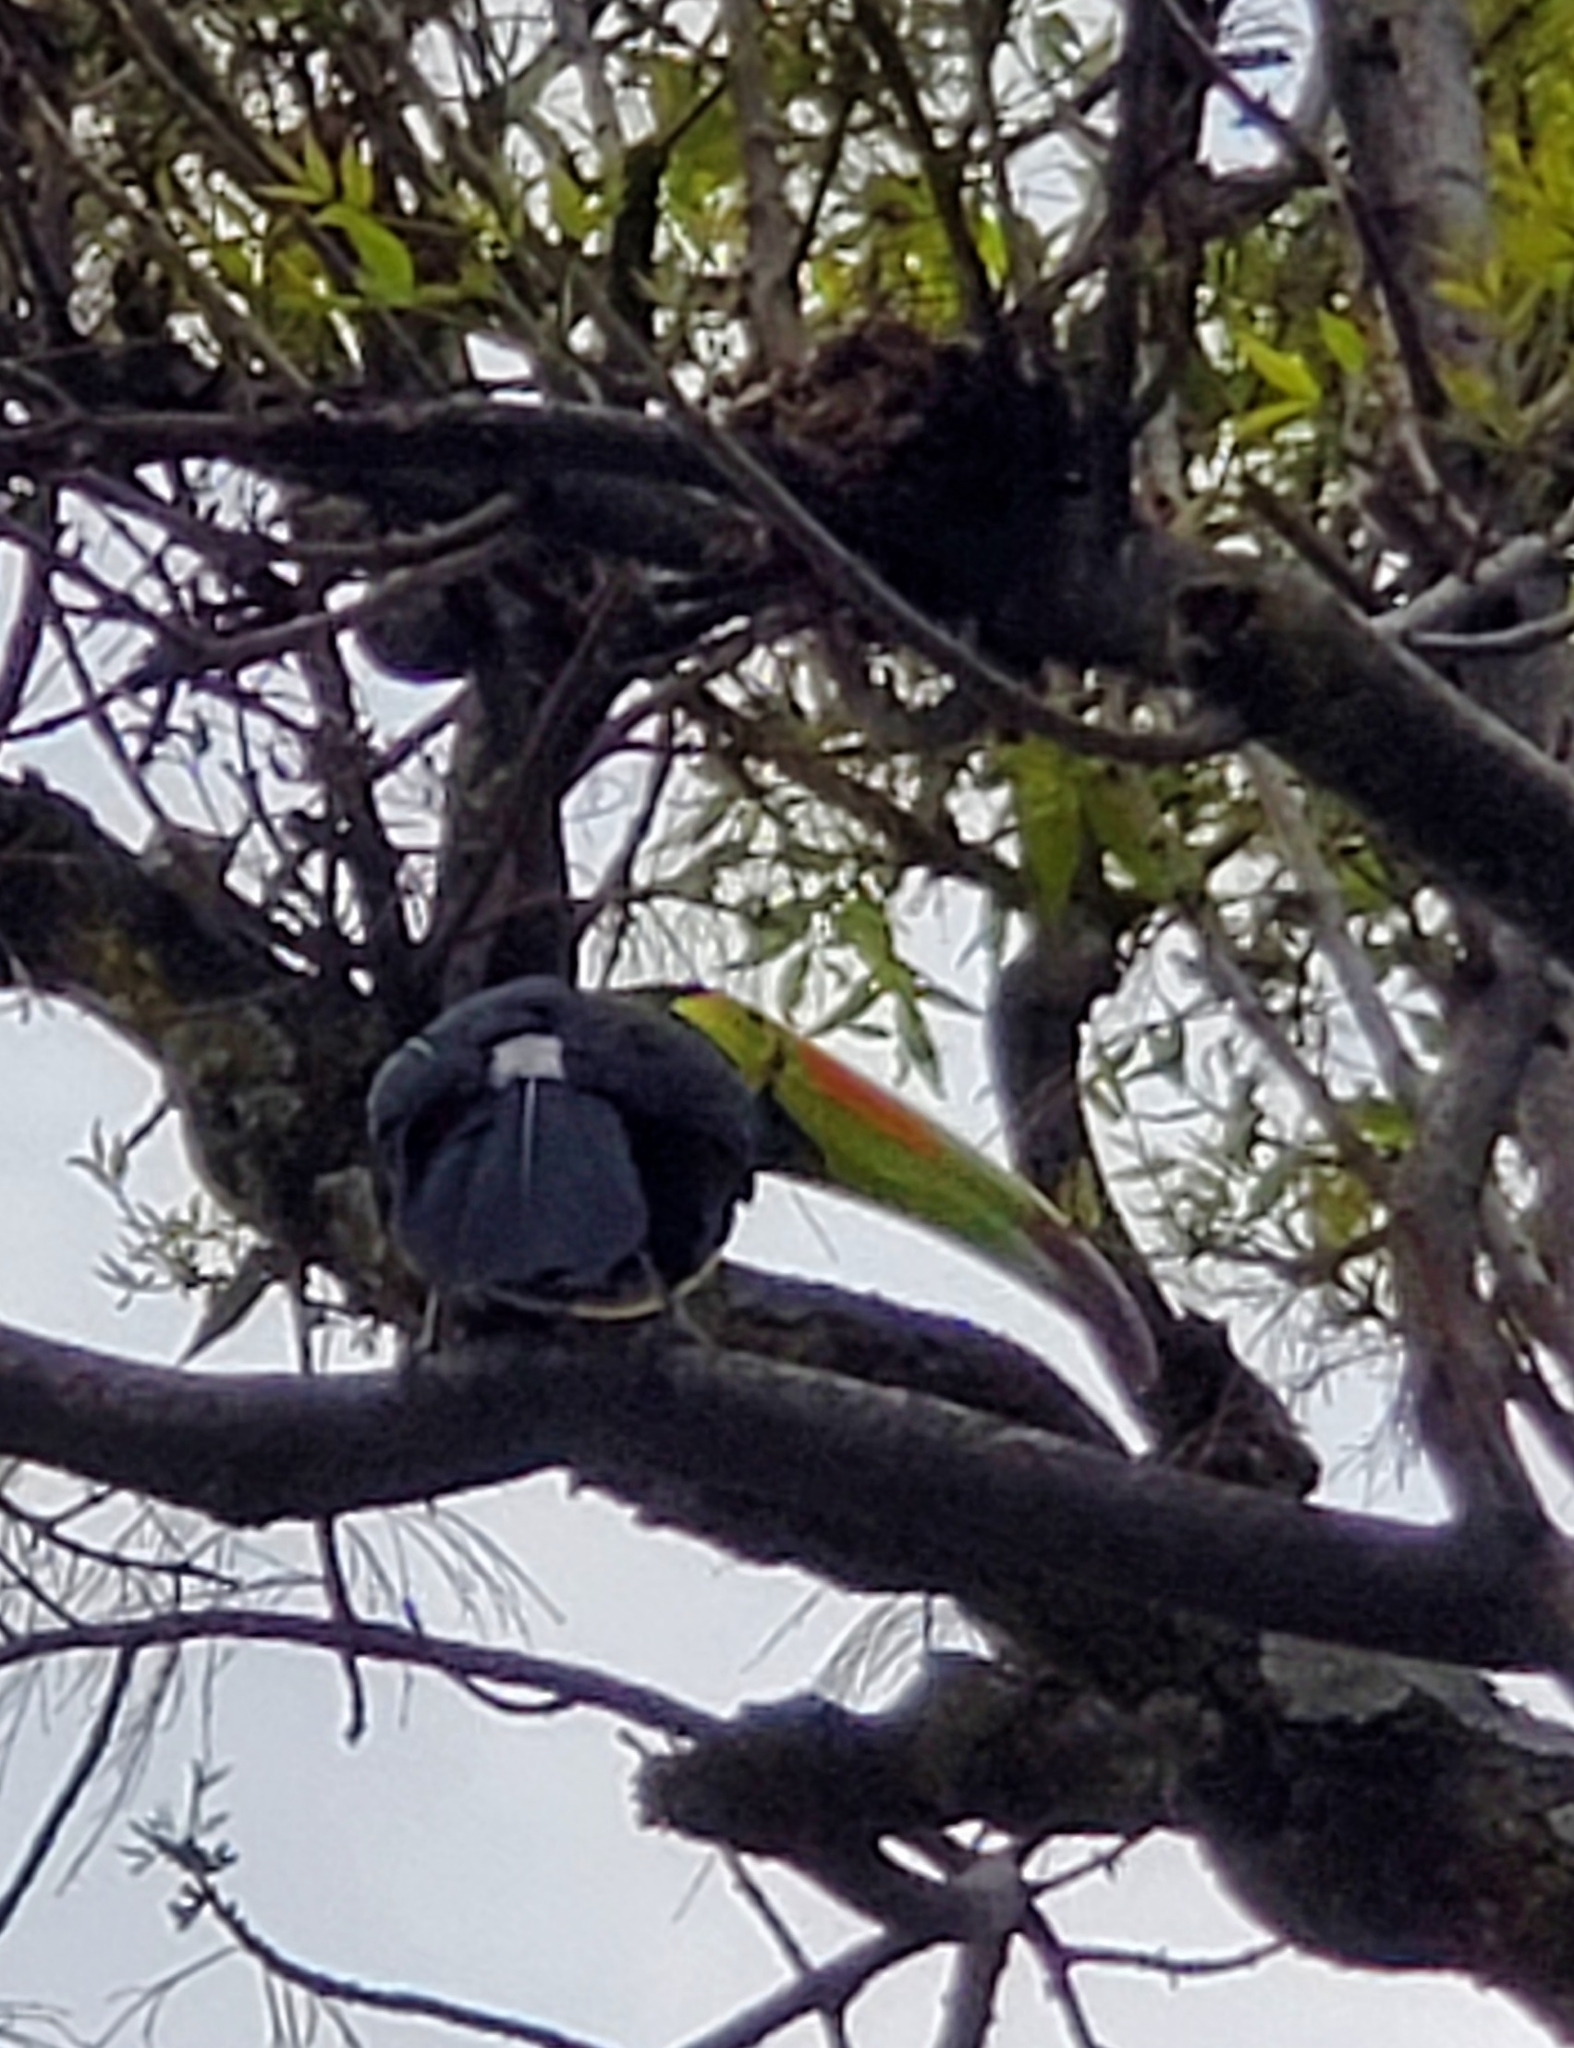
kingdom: Animalia
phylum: Chordata
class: Aves
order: Piciformes
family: Ramphastidae
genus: Ramphastos
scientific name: Ramphastos sulfuratus
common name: Keel-billed toucan
